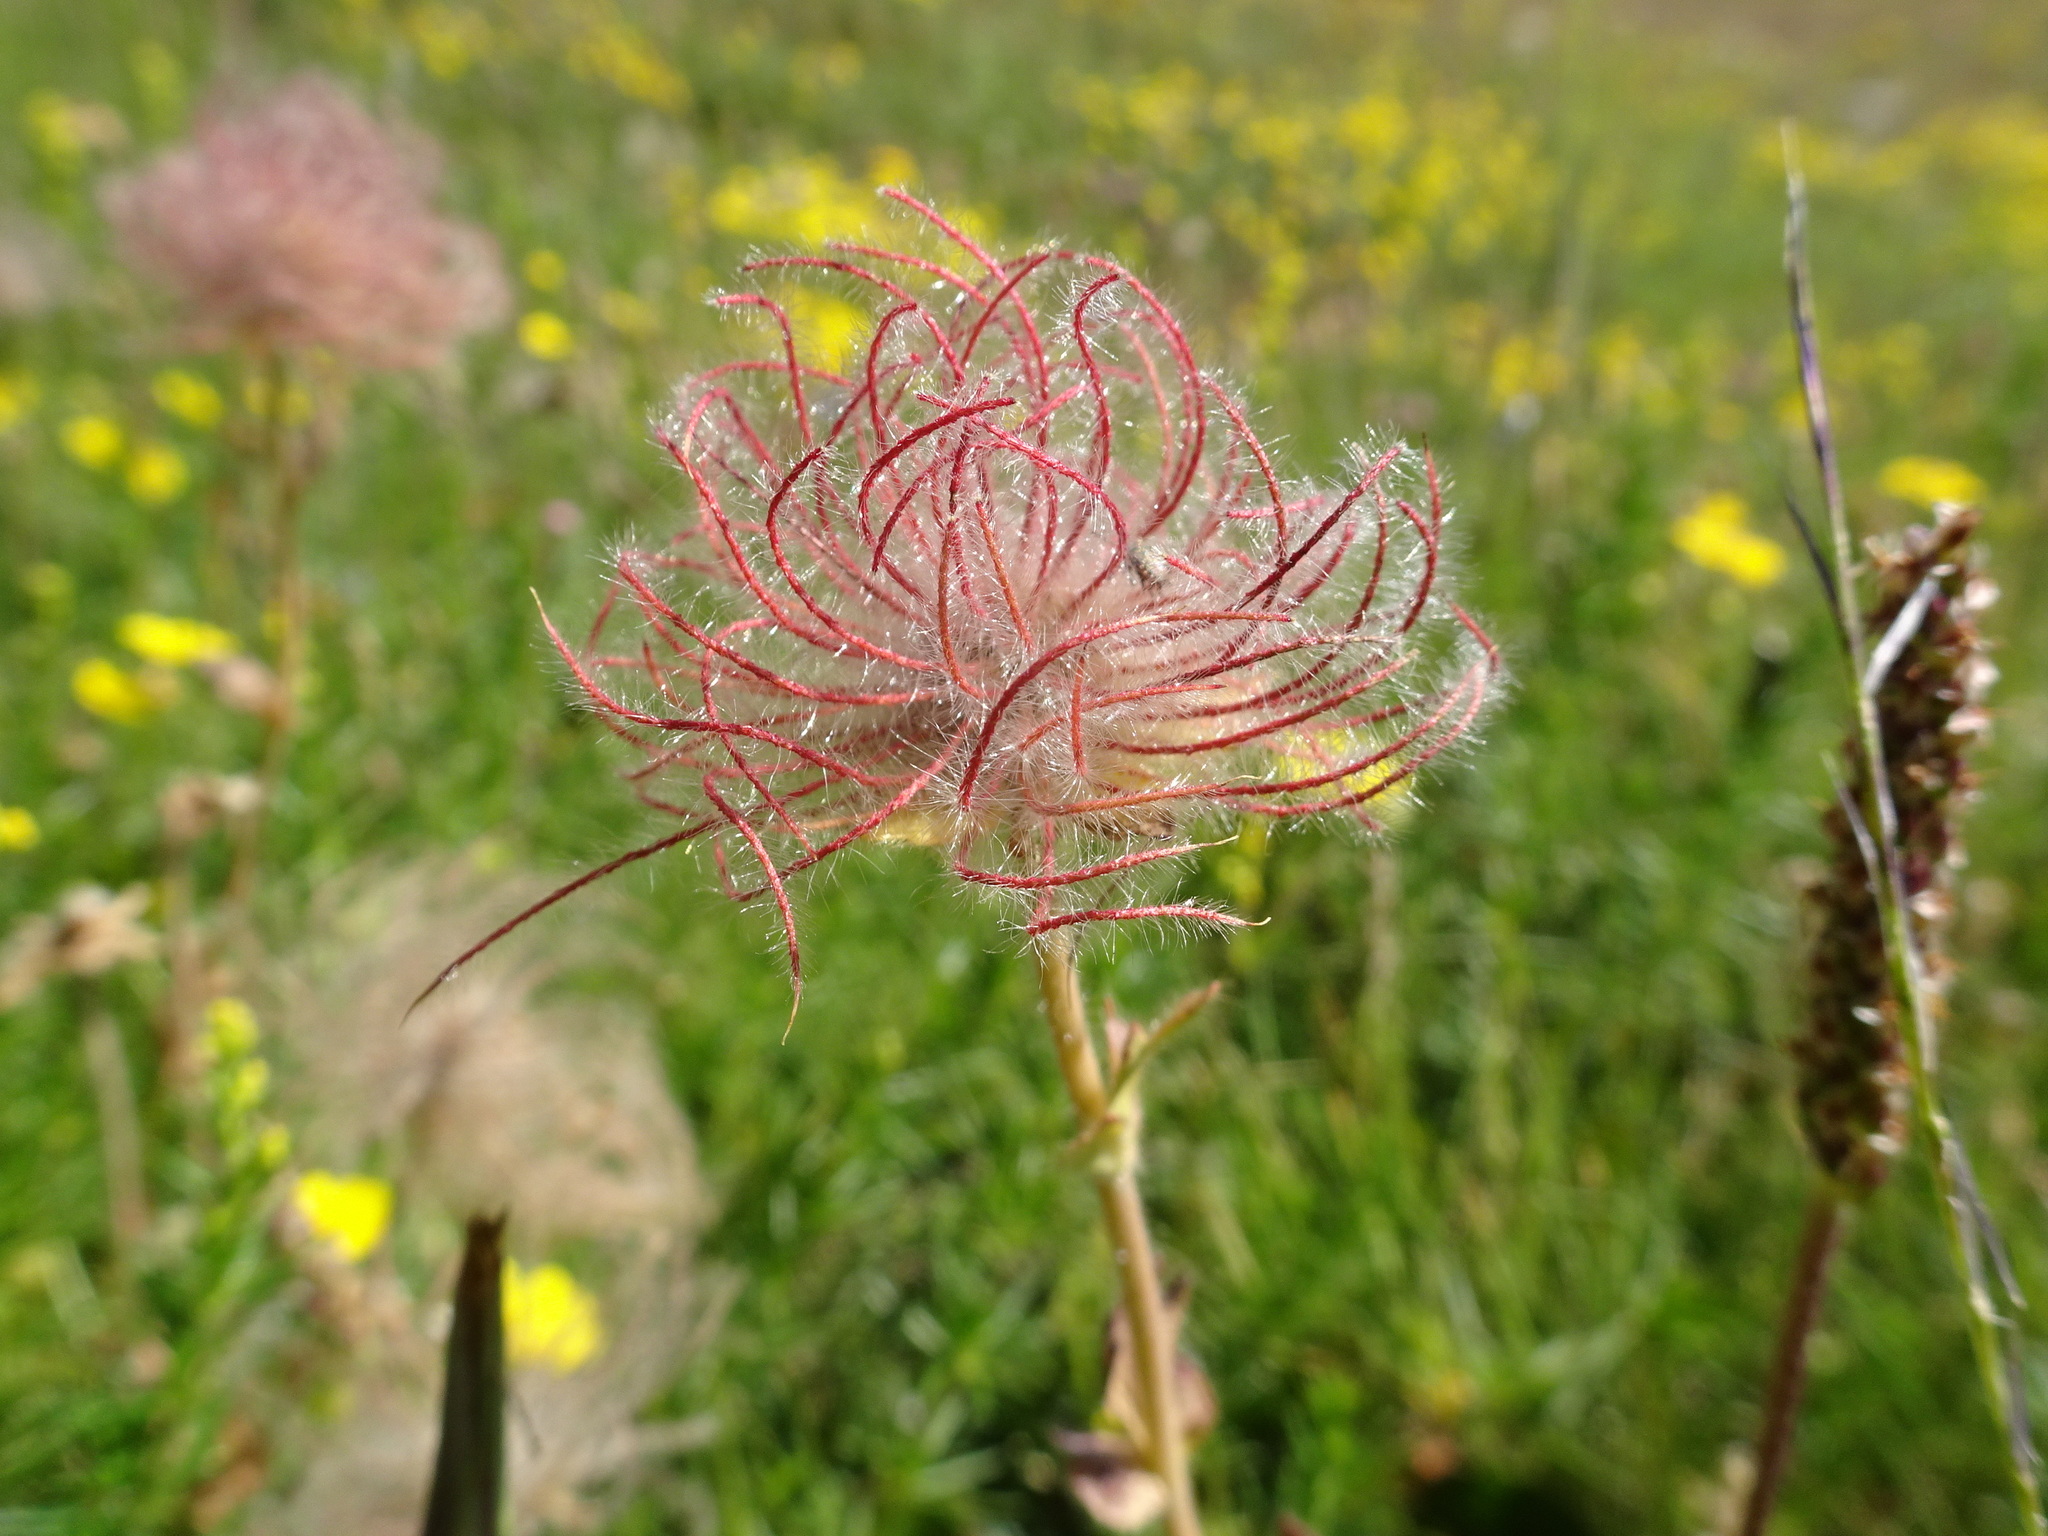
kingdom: Plantae
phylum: Tracheophyta
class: Magnoliopsida
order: Rosales
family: Rosaceae
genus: Geum
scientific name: Geum montanum
